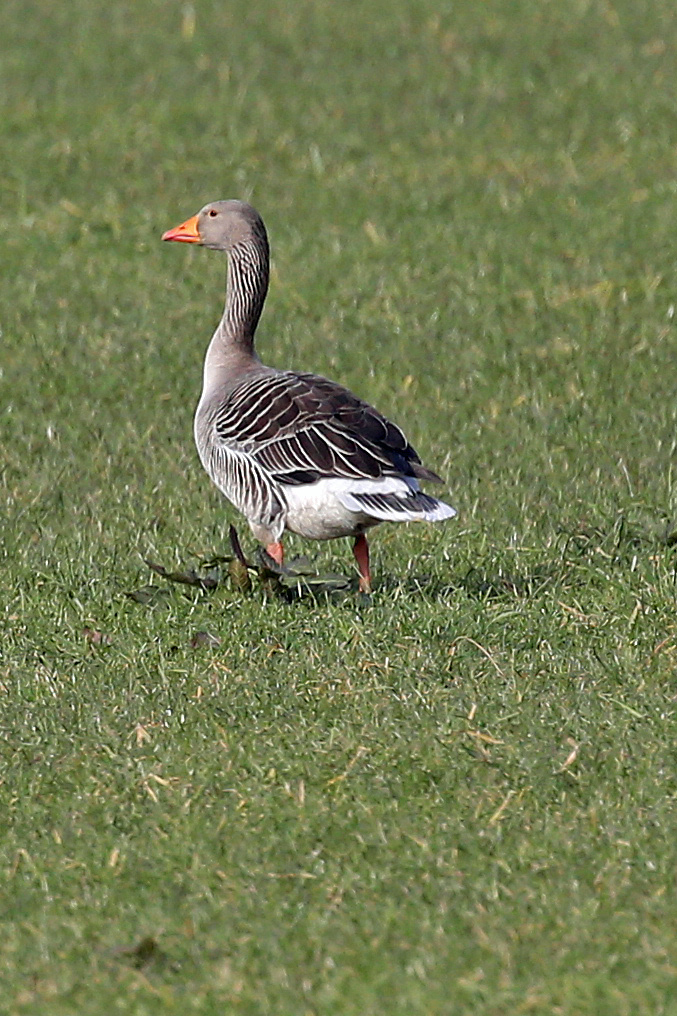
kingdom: Animalia
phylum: Chordata
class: Aves
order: Anseriformes
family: Anatidae
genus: Anser
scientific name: Anser anser
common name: Greylag goose
